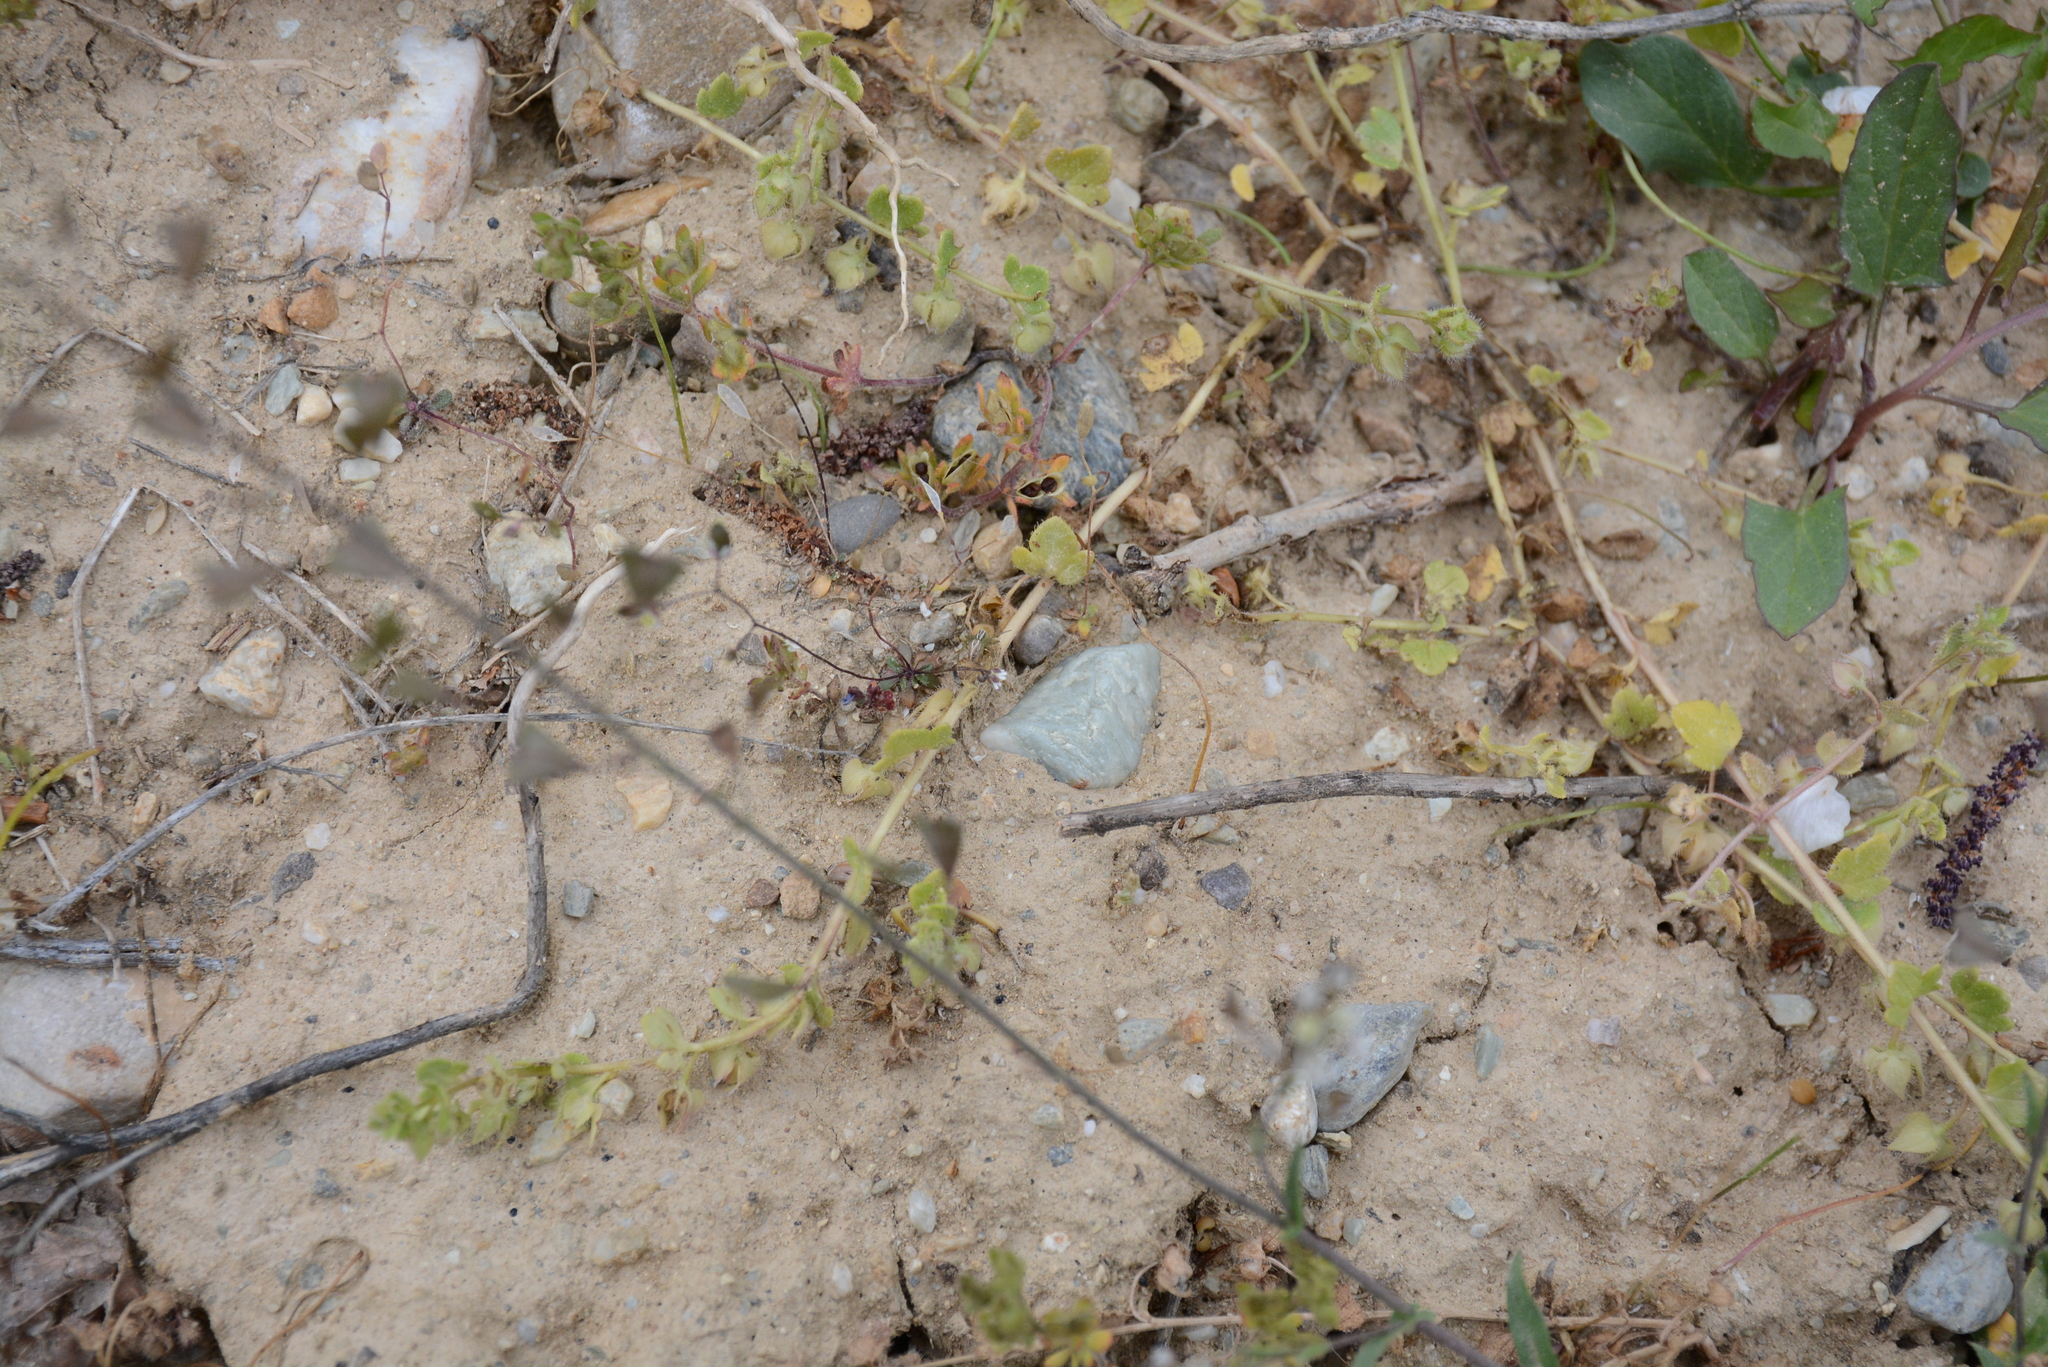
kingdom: Plantae
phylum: Tracheophyta
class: Magnoliopsida
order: Lamiales
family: Plantaginaceae
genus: Veronica
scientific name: Veronica triloba
